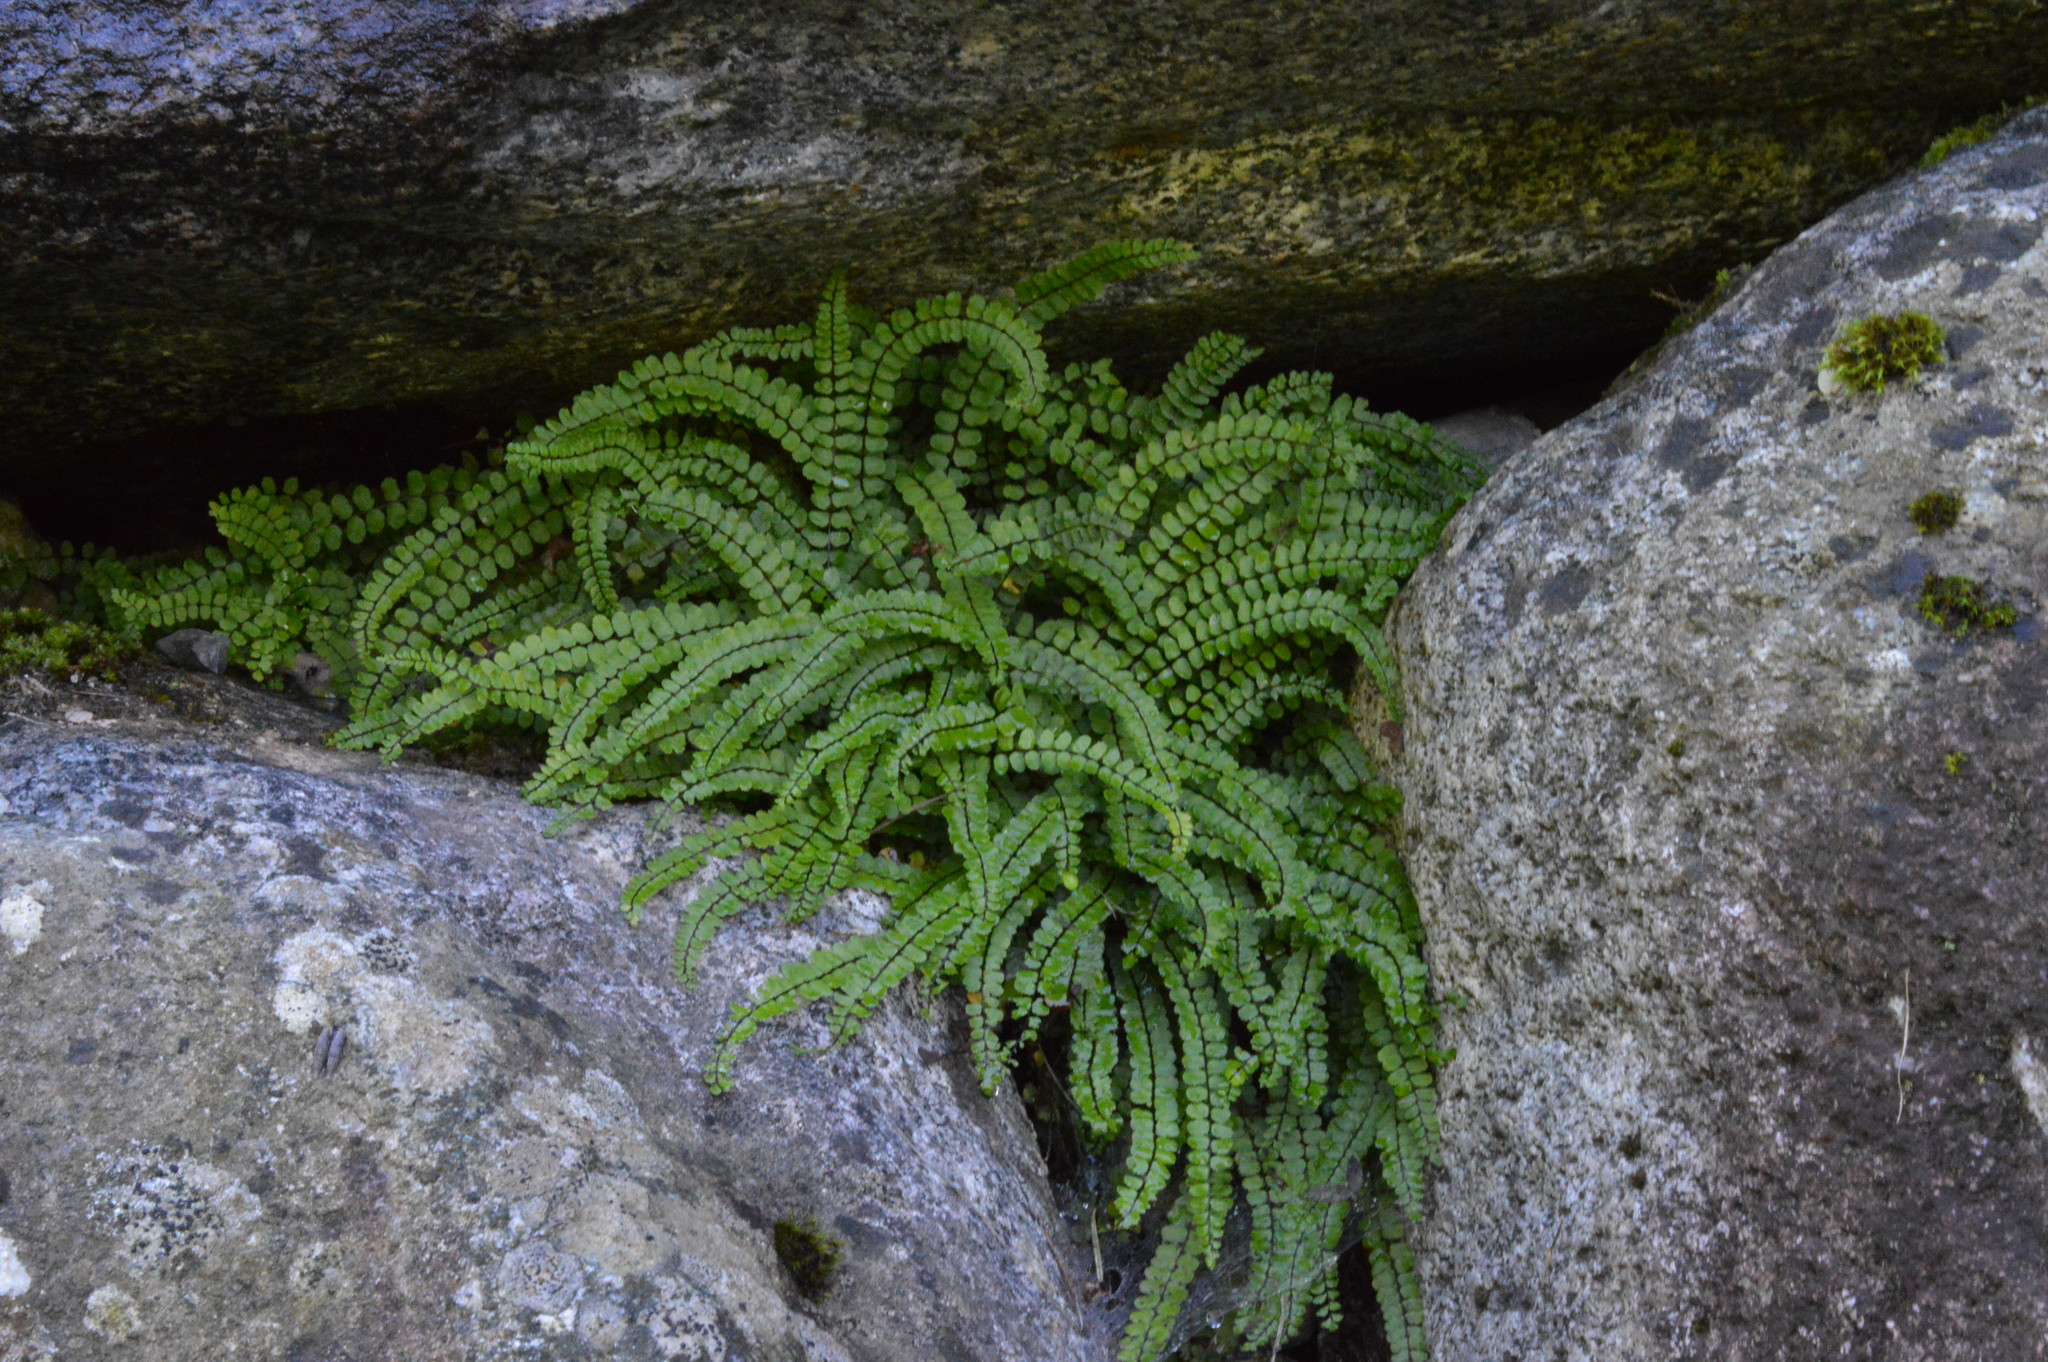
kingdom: Plantae
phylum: Tracheophyta
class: Polypodiopsida
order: Polypodiales
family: Aspleniaceae
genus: Asplenium
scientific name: Asplenium trichomanes
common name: Maidenhair spleenwort
